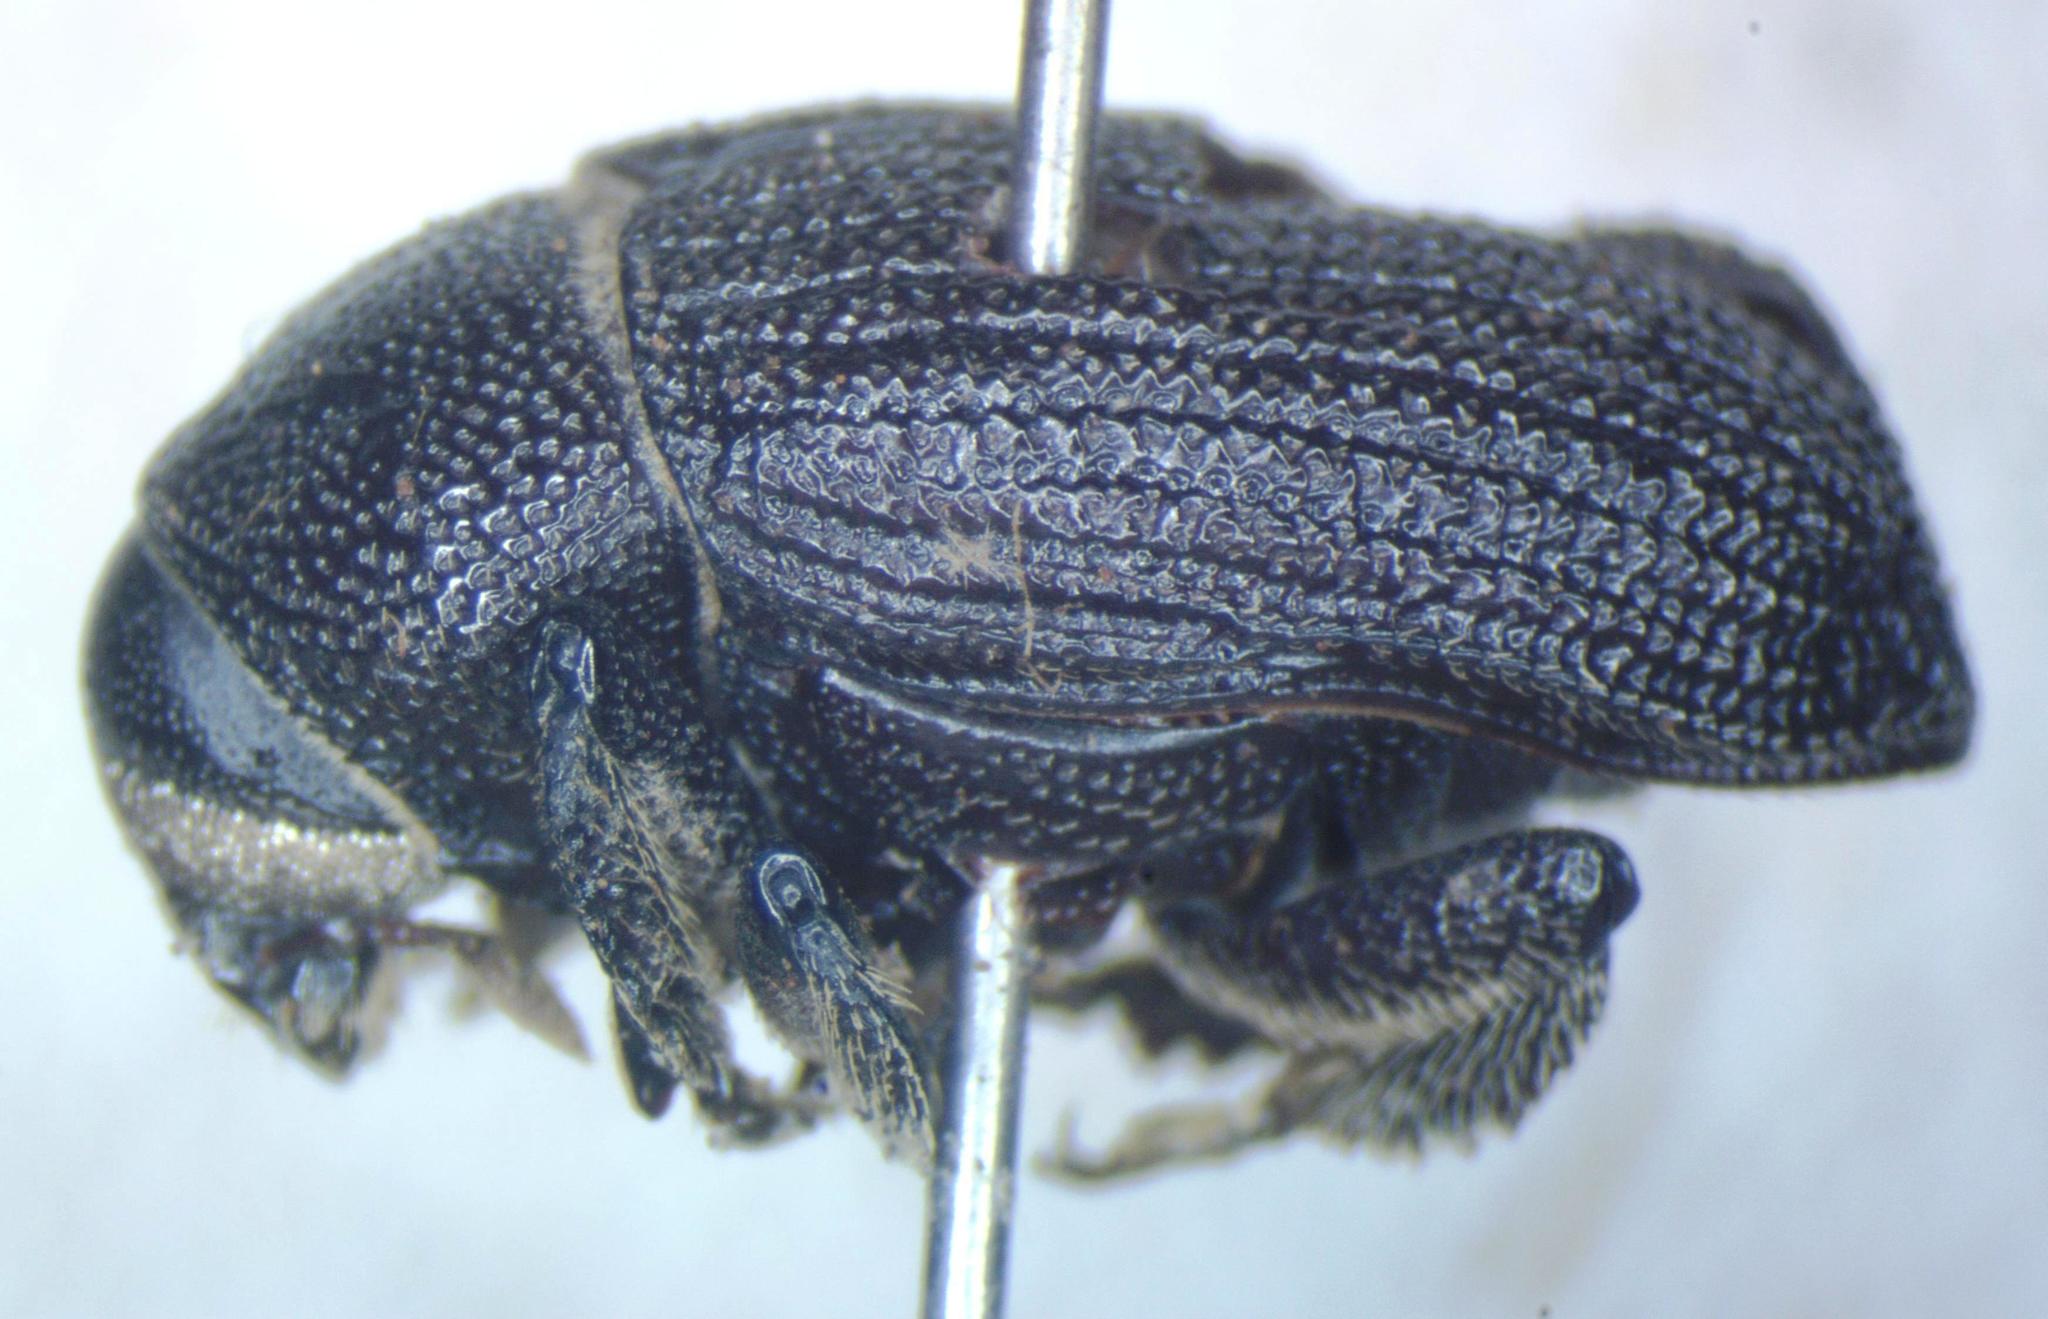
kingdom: Animalia
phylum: Arthropoda
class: Insecta
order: Coleoptera
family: Curculionidae
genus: Phloeoborus
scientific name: Phloeoborus rudis
